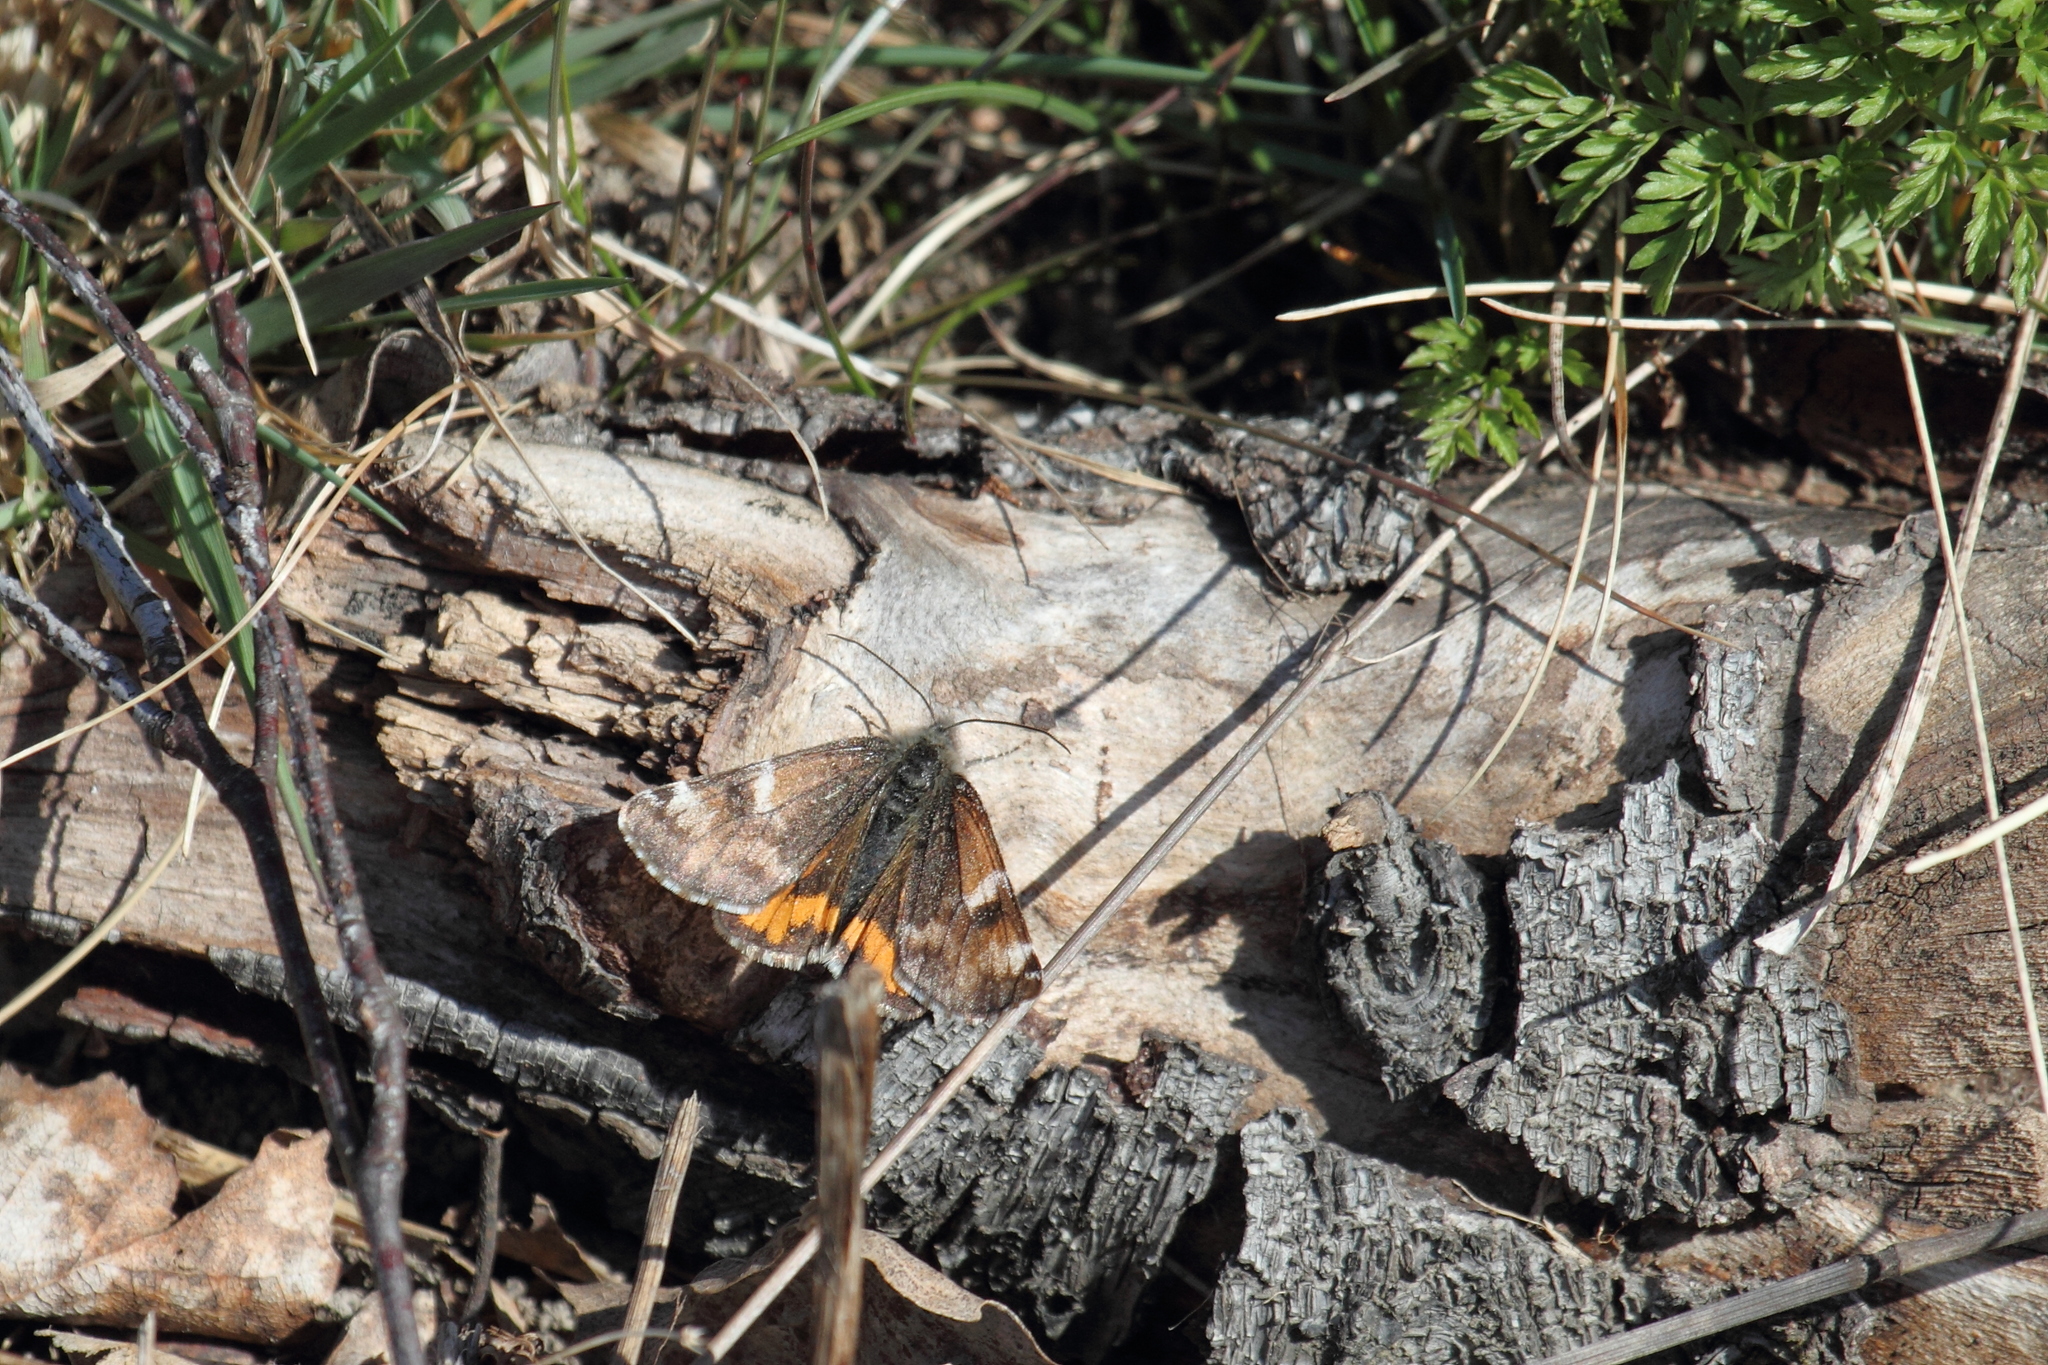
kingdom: Animalia
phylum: Arthropoda
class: Insecta
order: Lepidoptera
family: Geometridae
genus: Archiearis
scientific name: Archiearis parthenias
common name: Orange underwing
